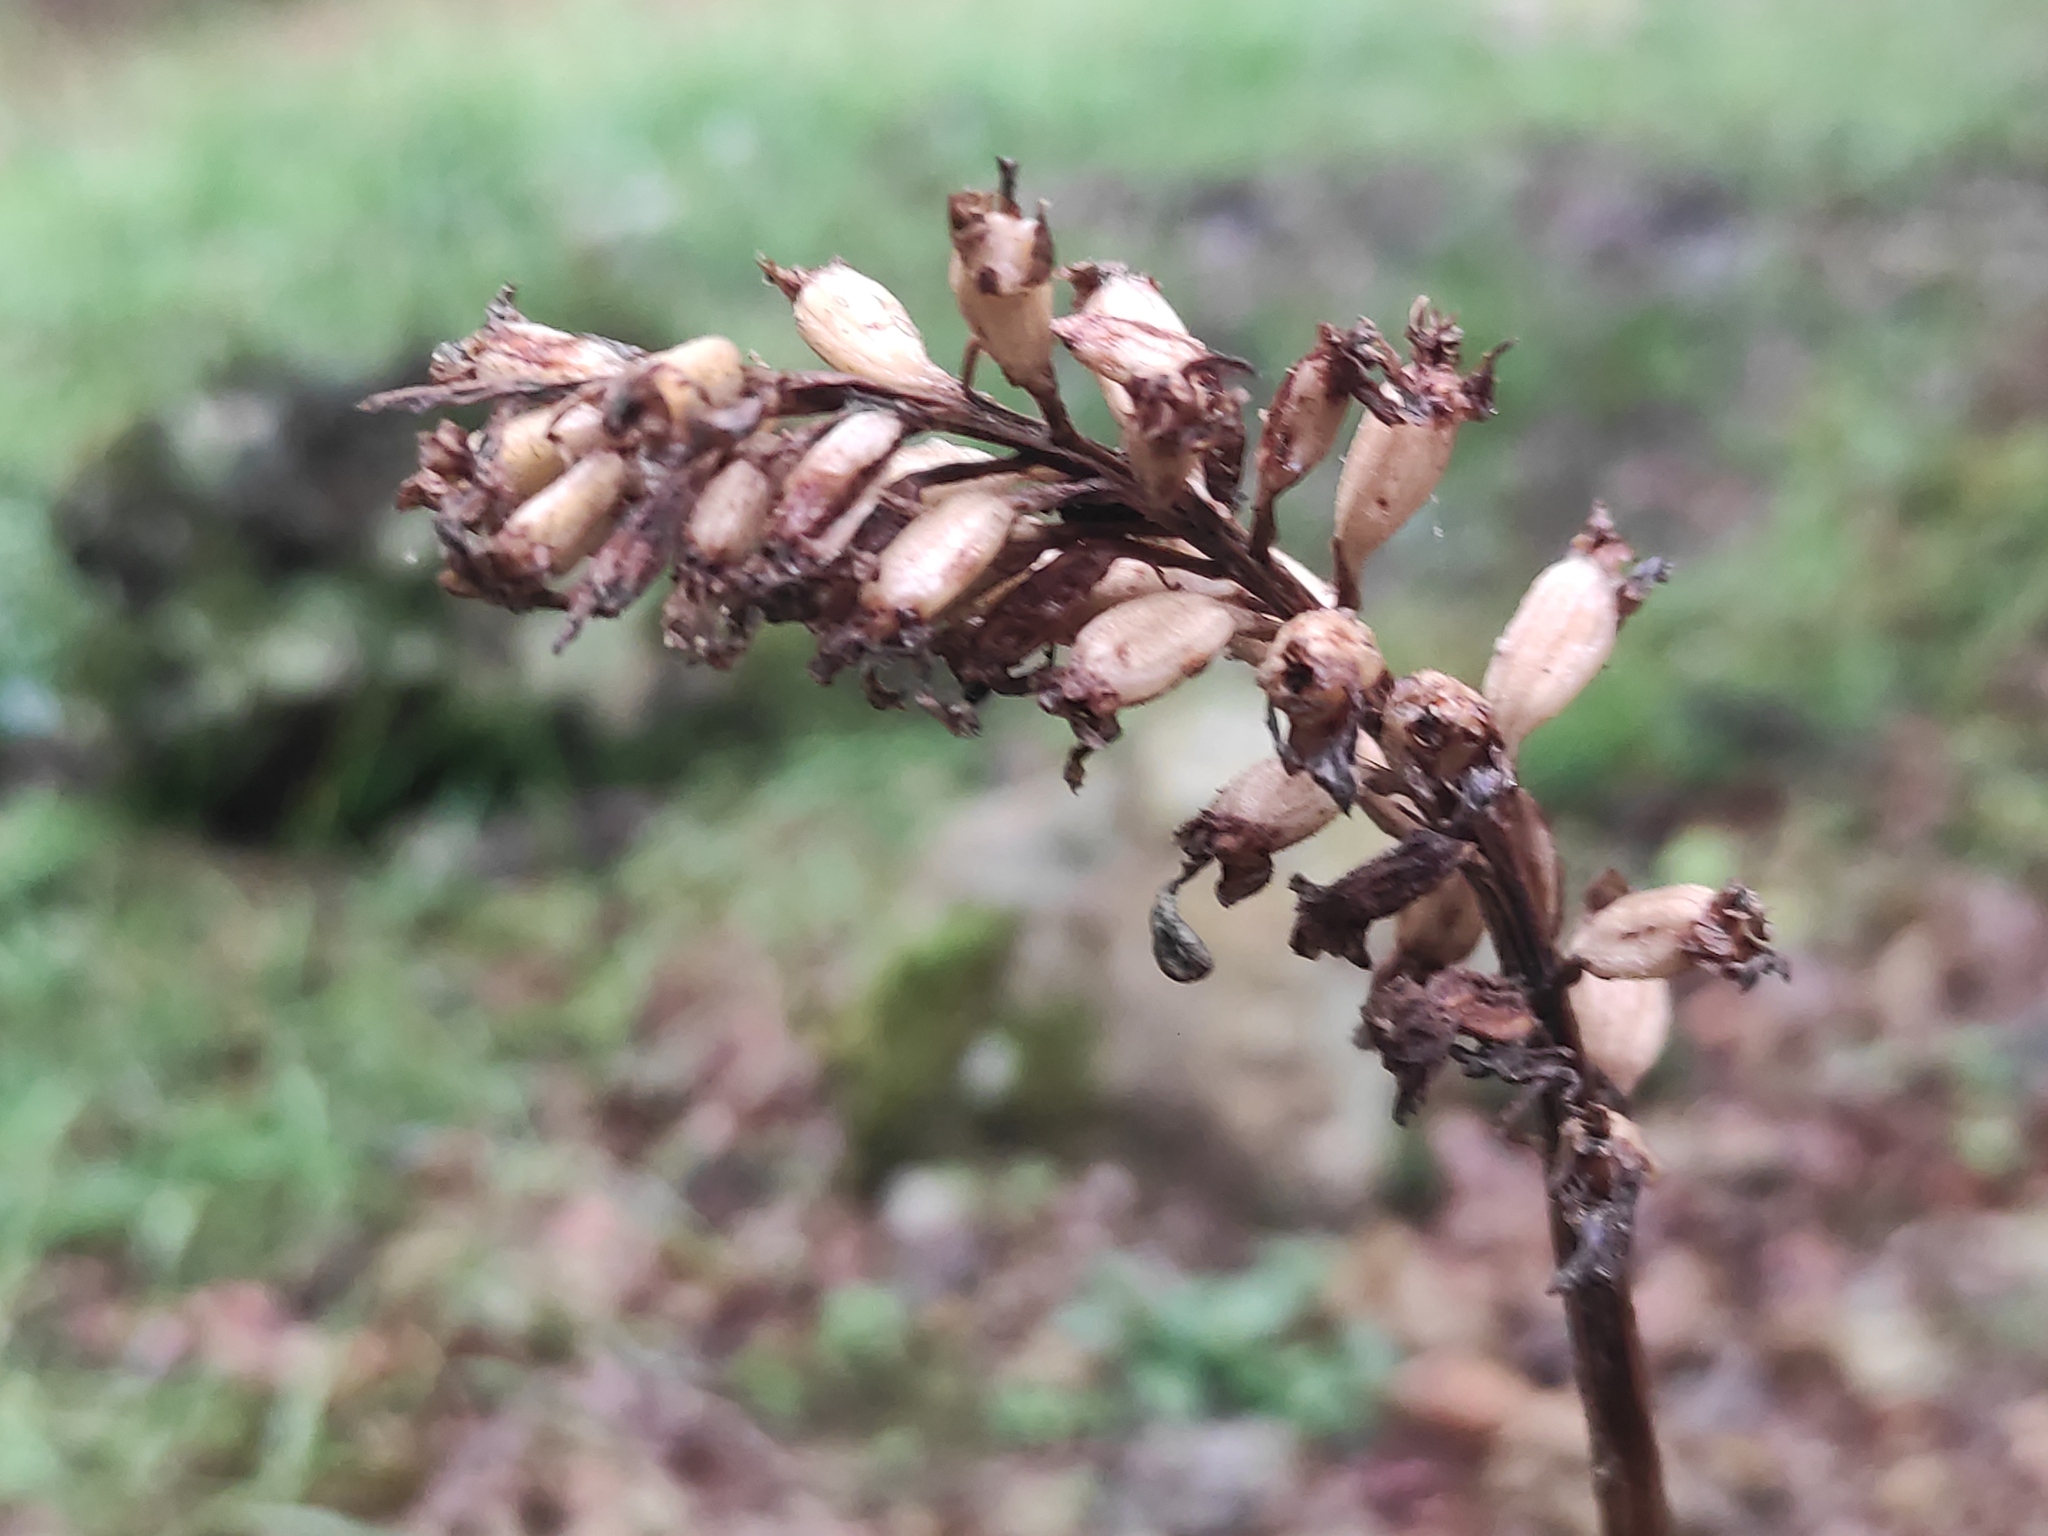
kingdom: Plantae
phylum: Tracheophyta
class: Liliopsida
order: Asparagales
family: Orchidaceae
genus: Neottia
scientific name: Neottia nidus-avis
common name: Bird's-nest orchid
